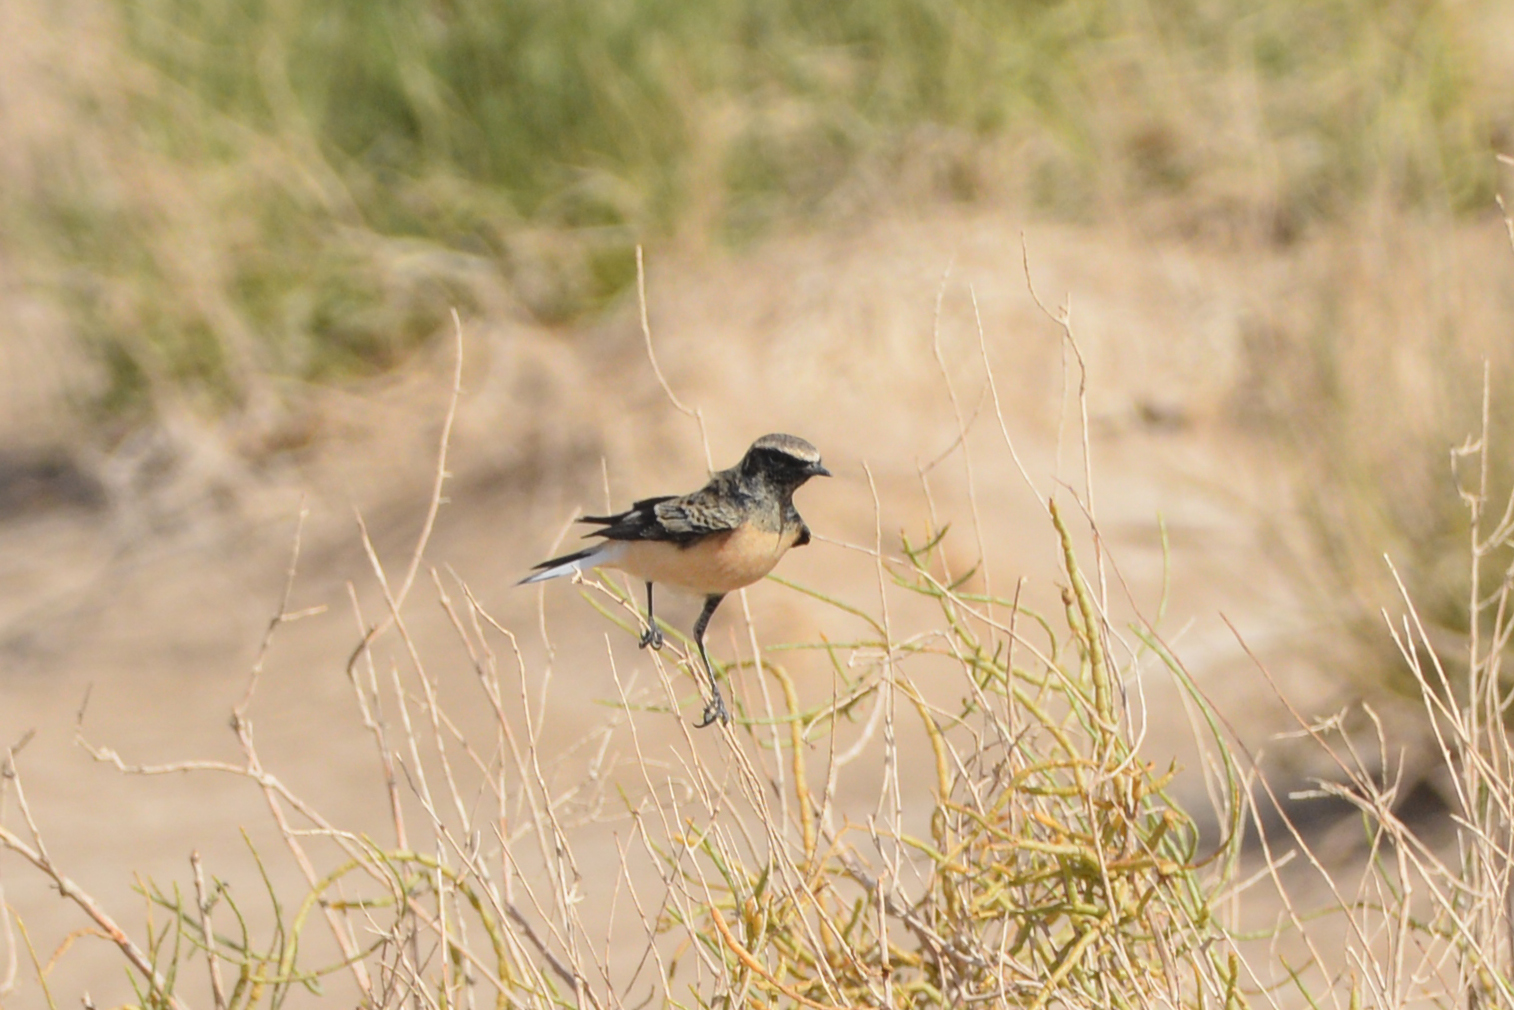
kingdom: Animalia
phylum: Chordata
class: Aves
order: Passeriformes
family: Muscicapidae
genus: Oenanthe
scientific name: Oenanthe pleschanka
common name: Pied wheatear
